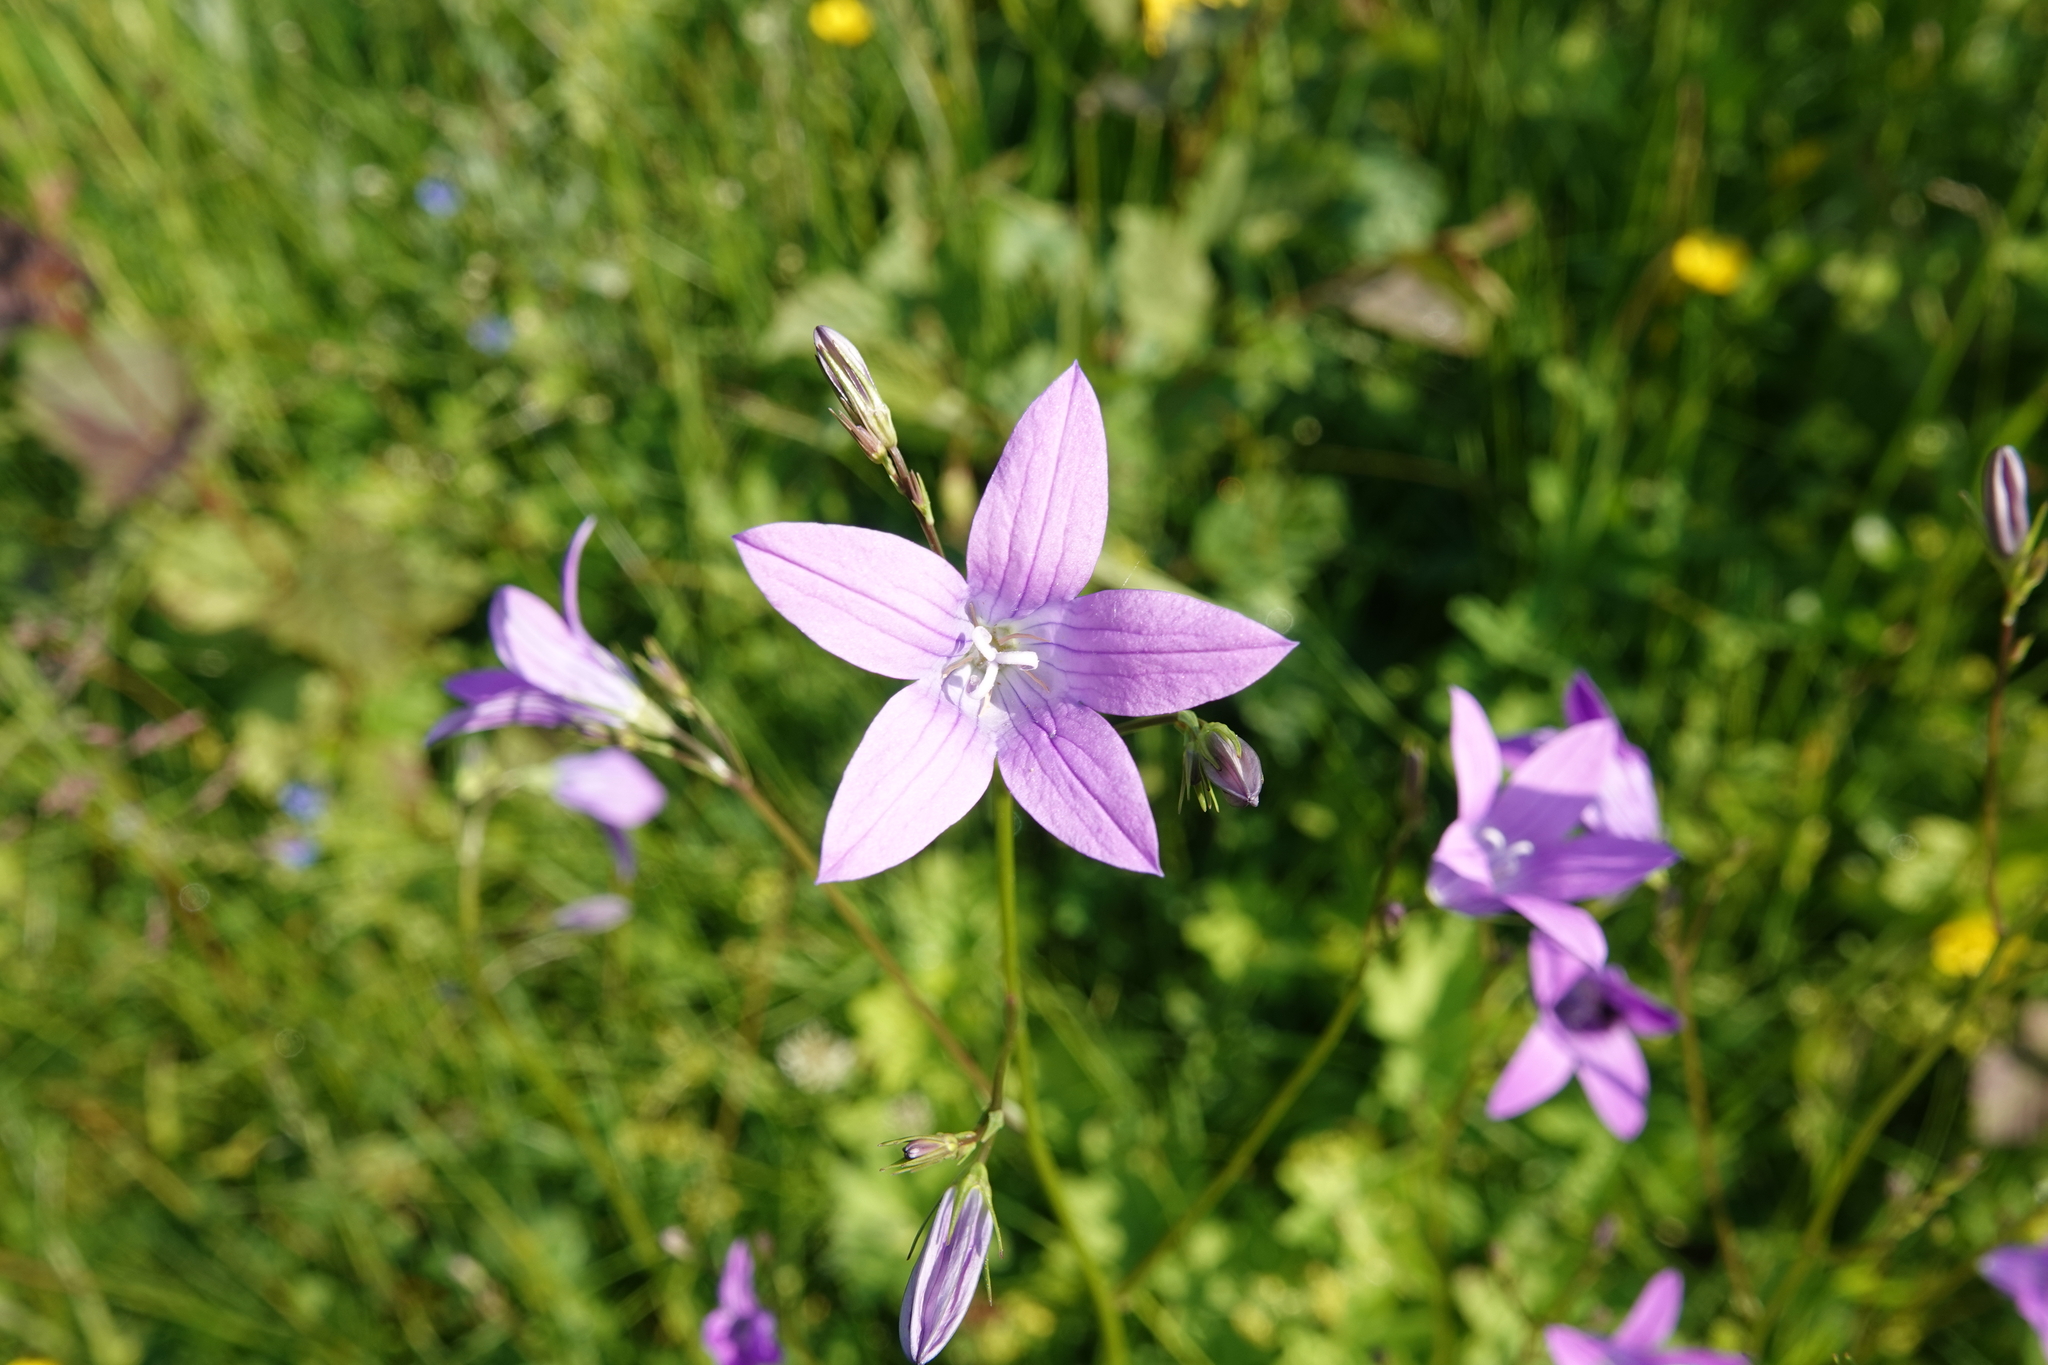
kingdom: Plantae
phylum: Tracheophyta
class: Magnoliopsida
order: Asterales
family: Campanulaceae
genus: Campanula
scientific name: Campanula patula
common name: Spreading bellflower
